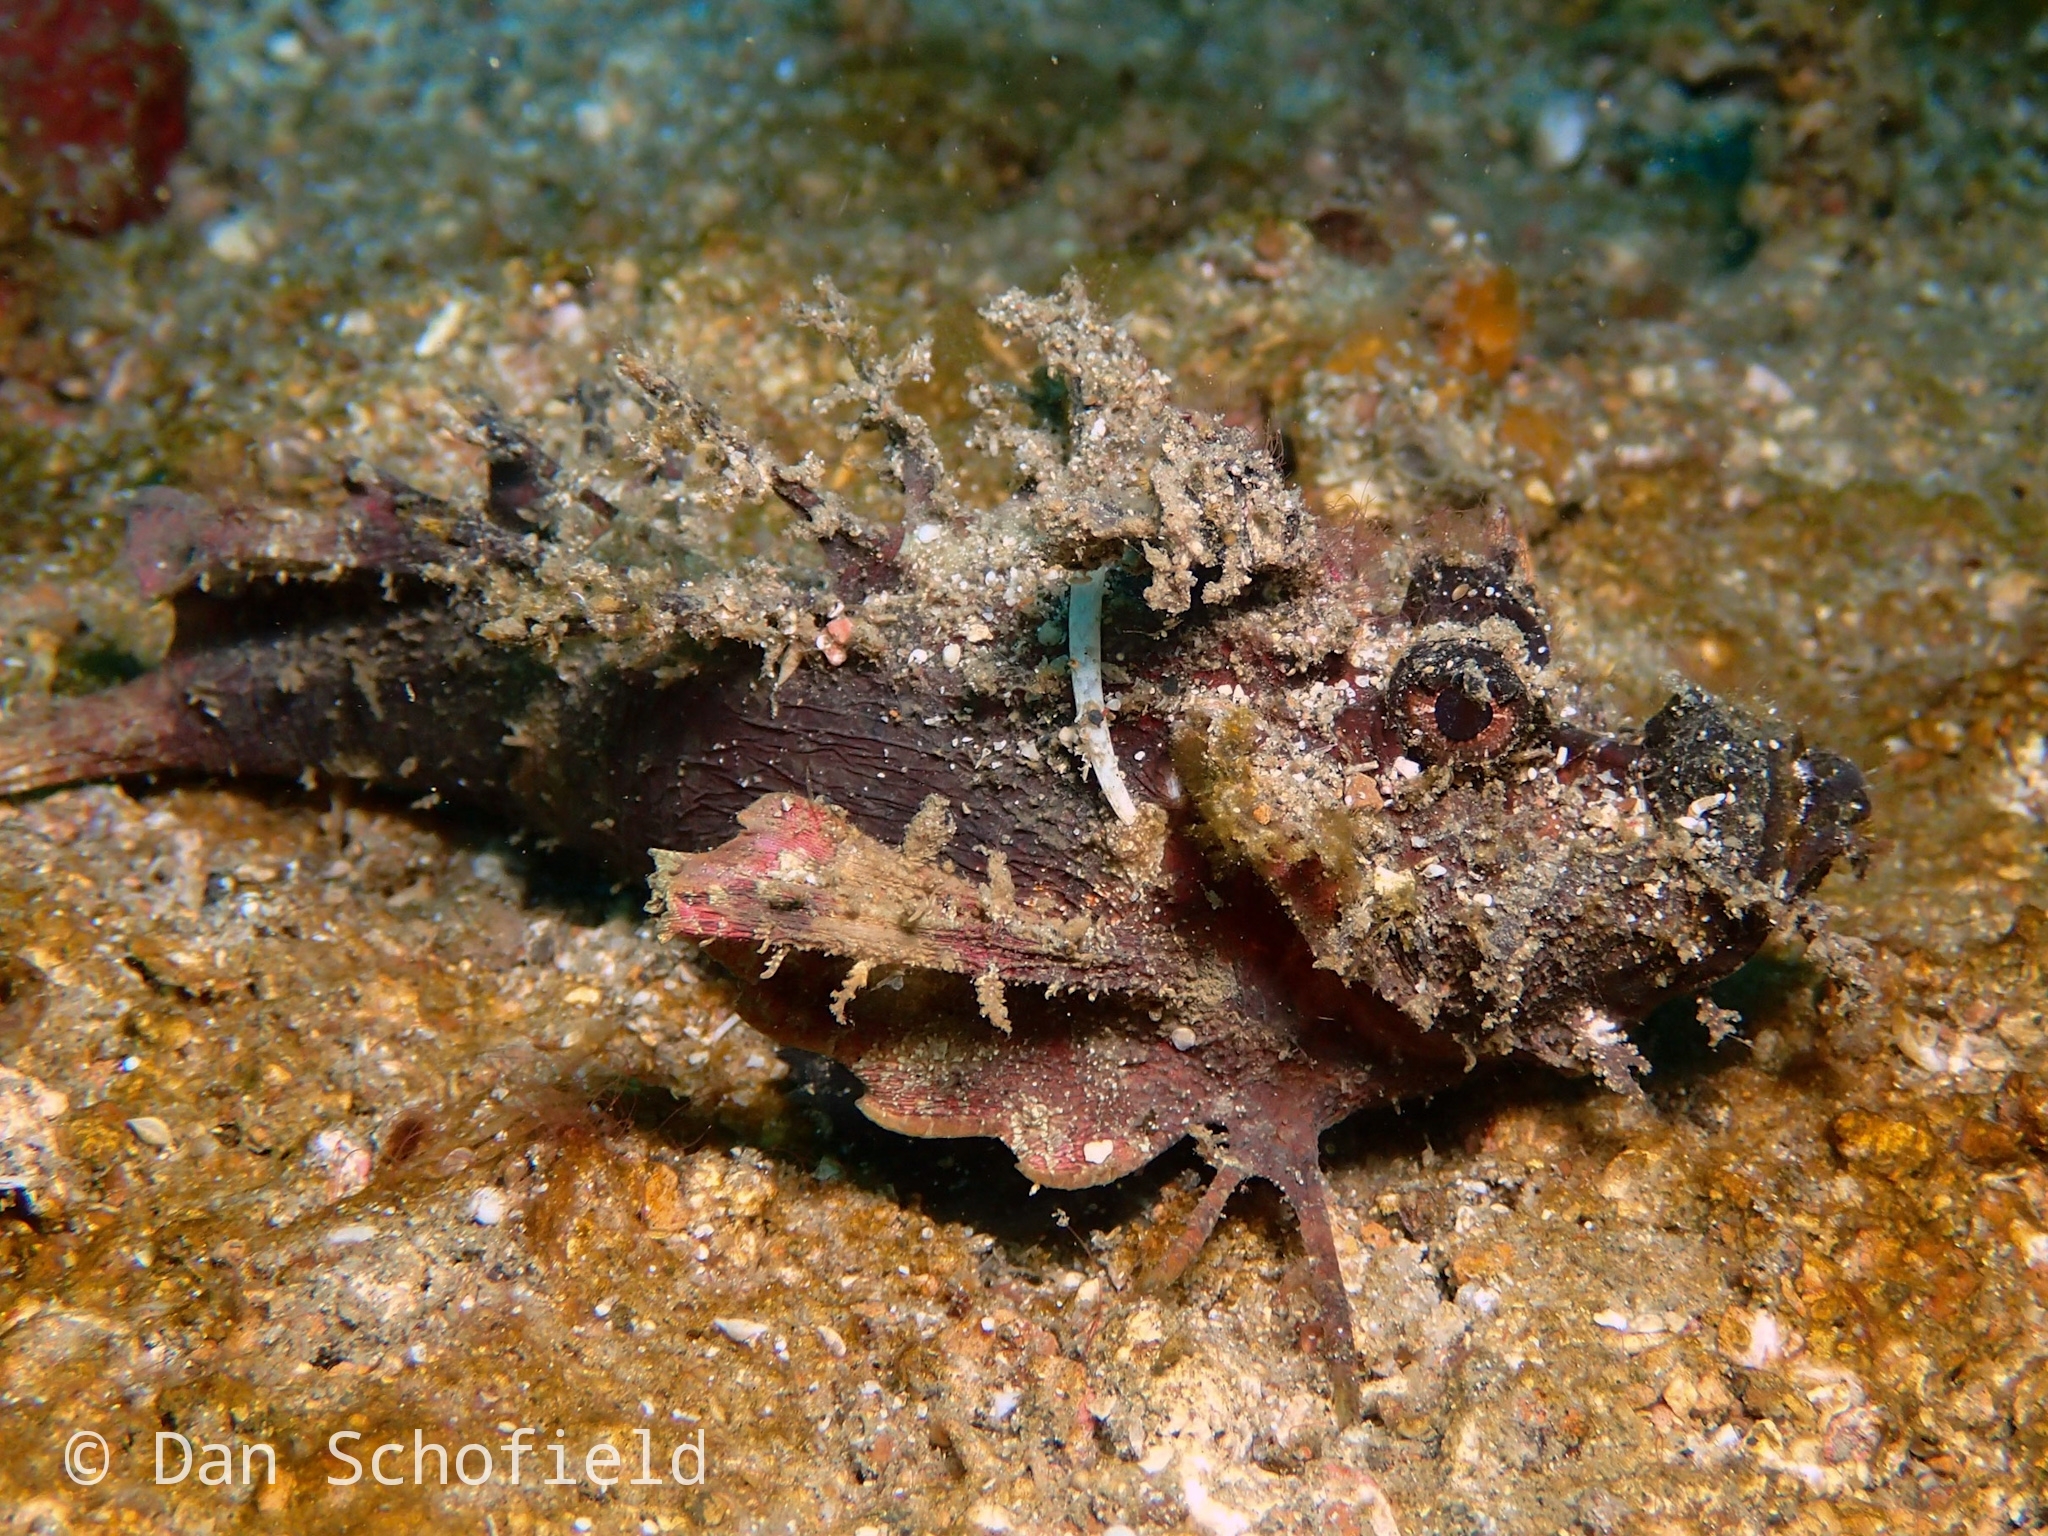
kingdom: Animalia
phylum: Chordata
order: Scorpaeniformes
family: Synanceiidae
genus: Inimicus
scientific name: Inimicus didactylus
